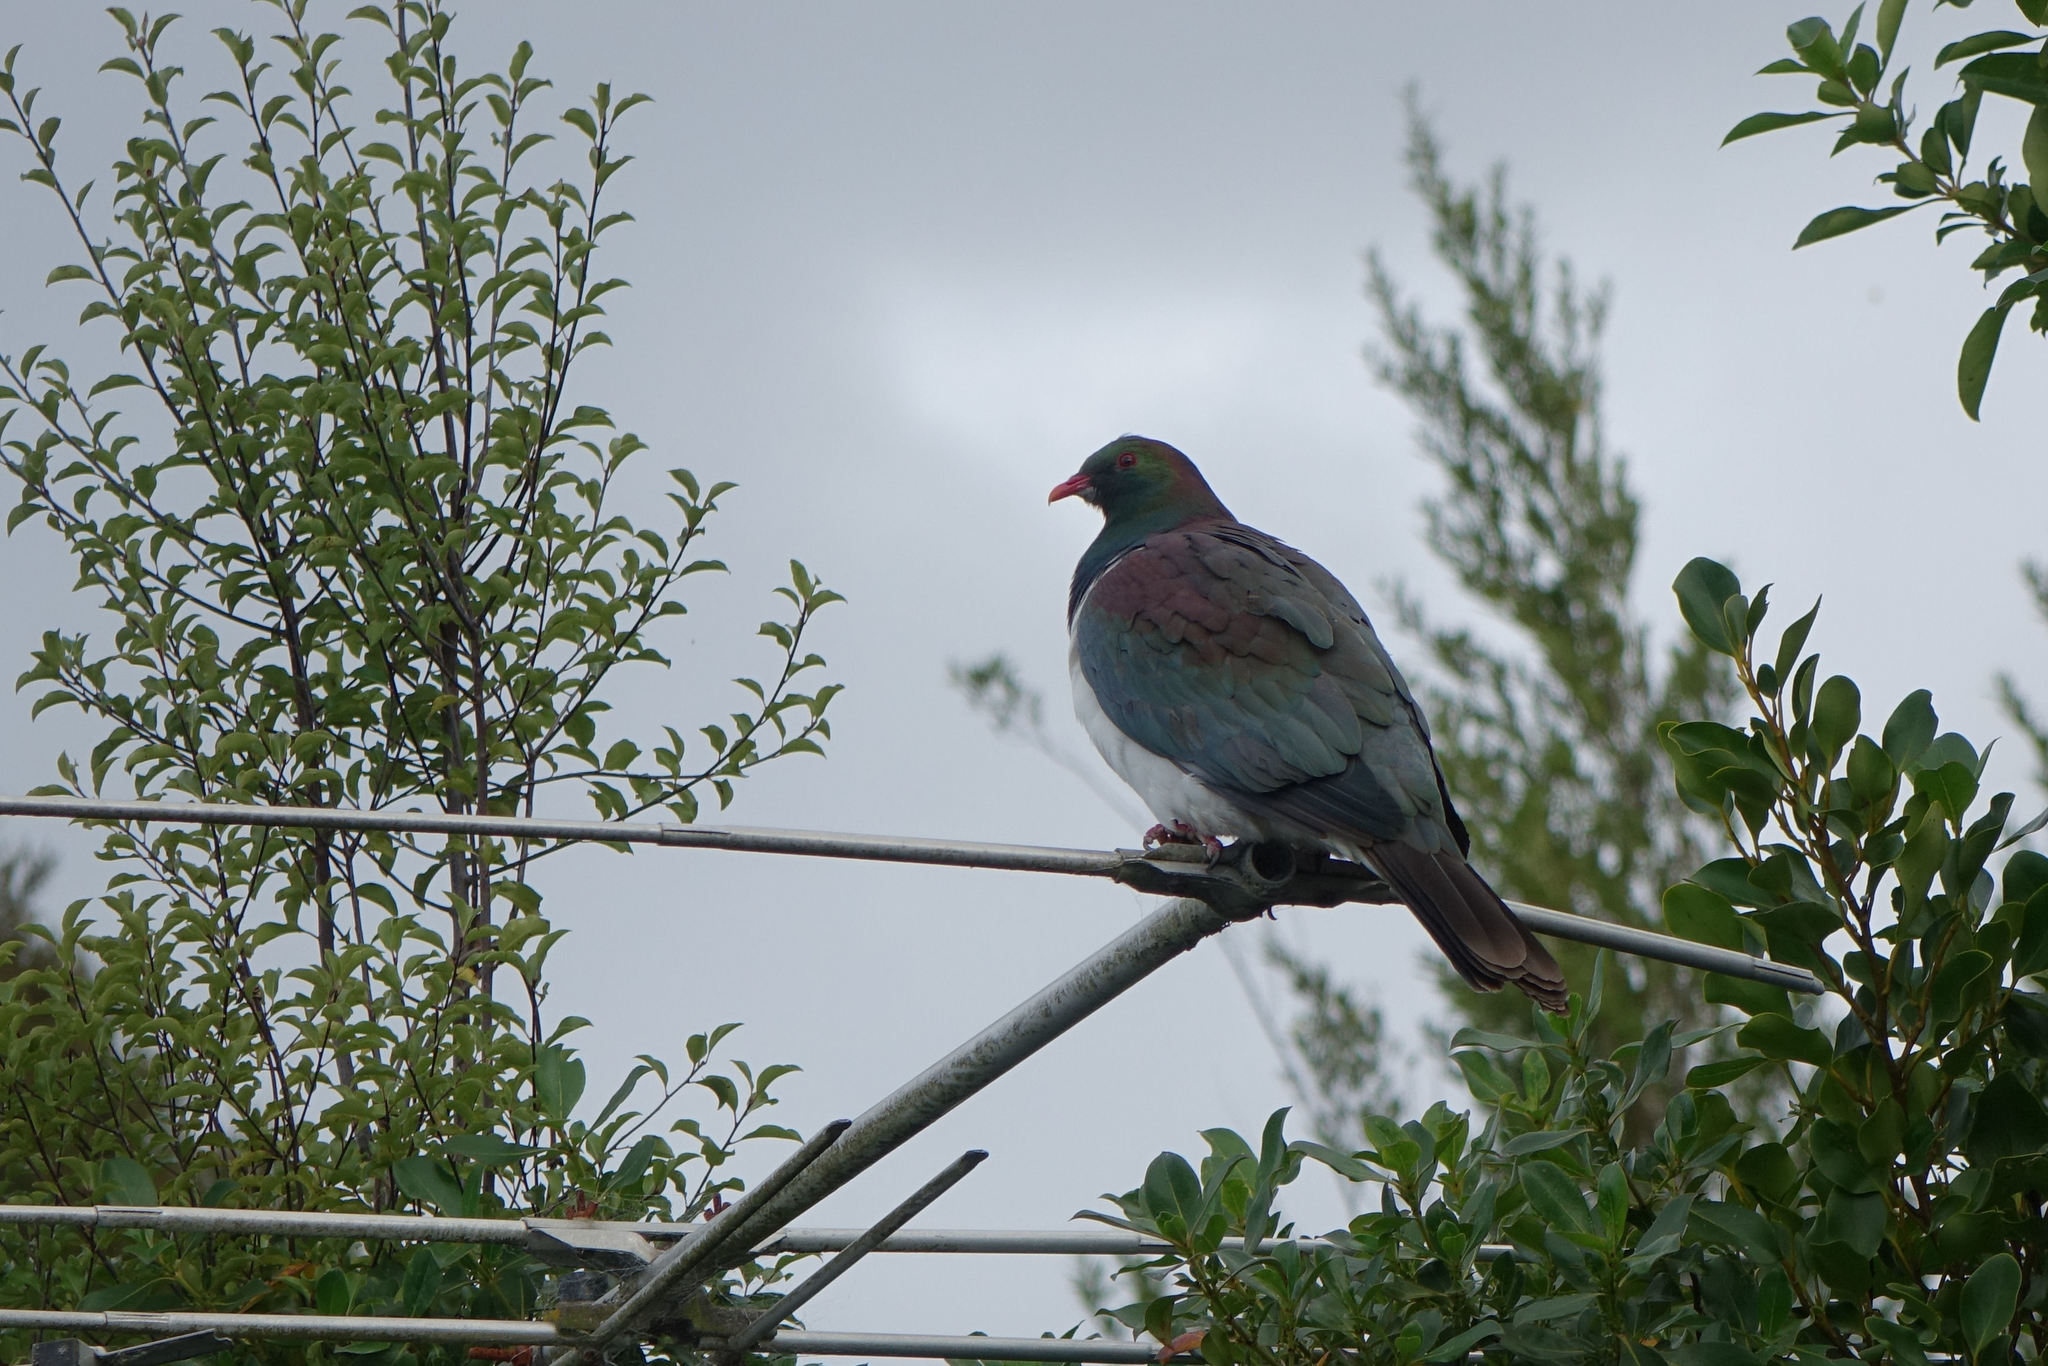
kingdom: Animalia
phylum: Chordata
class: Aves
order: Columbiformes
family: Columbidae
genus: Hemiphaga
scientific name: Hemiphaga novaeseelandiae
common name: New zealand pigeon
